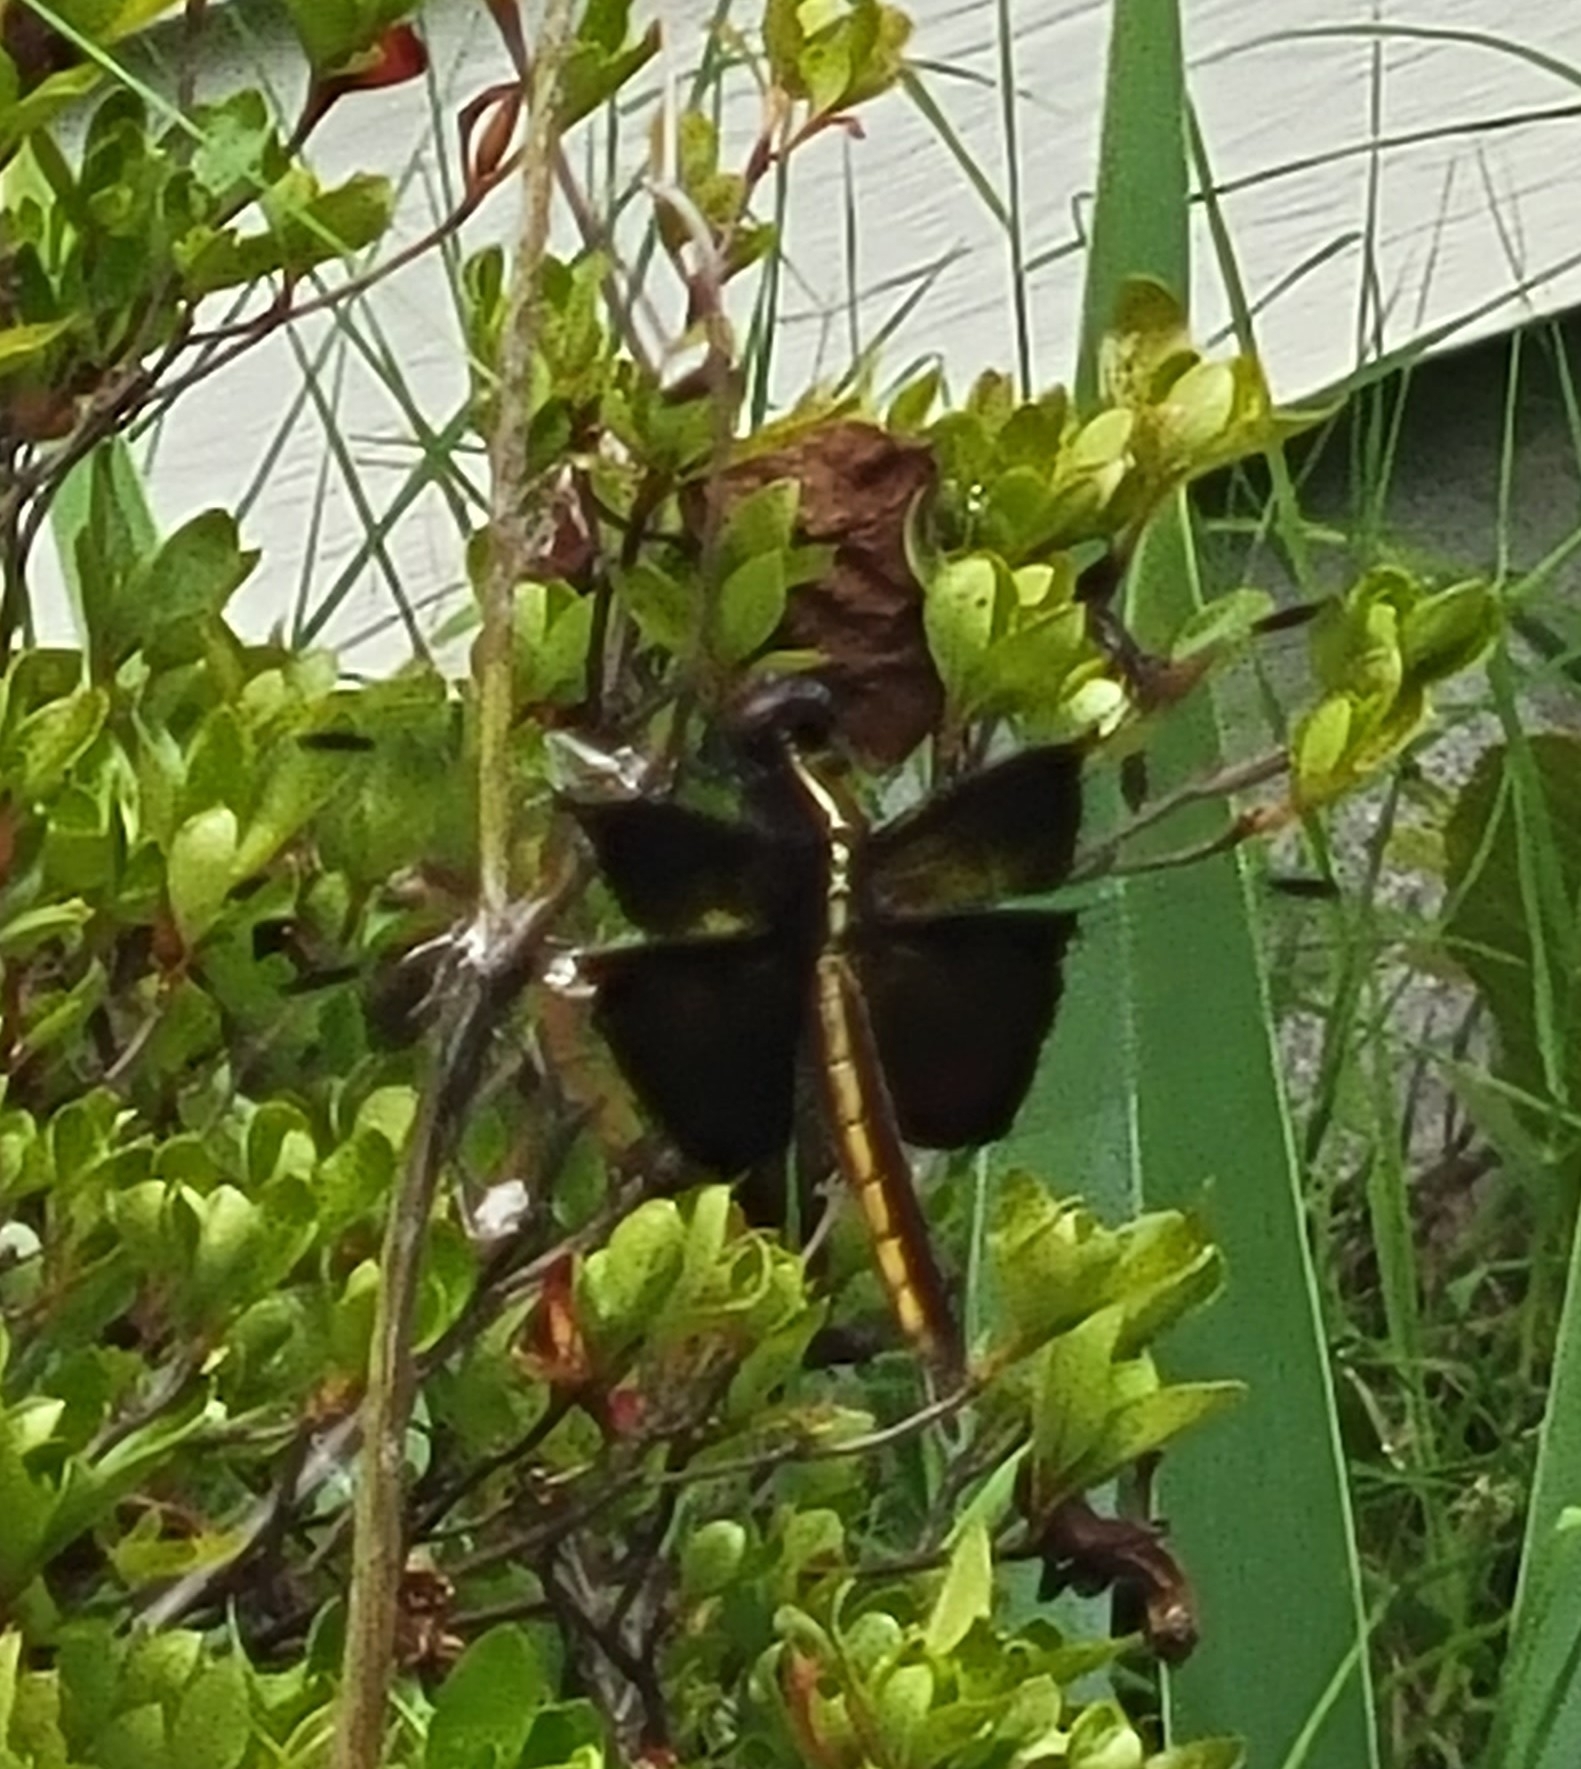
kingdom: Animalia
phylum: Arthropoda
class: Insecta
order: Odonata
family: Libellulidae
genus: Libellula
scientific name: Libellula luctuosa
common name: Widow skimmer
